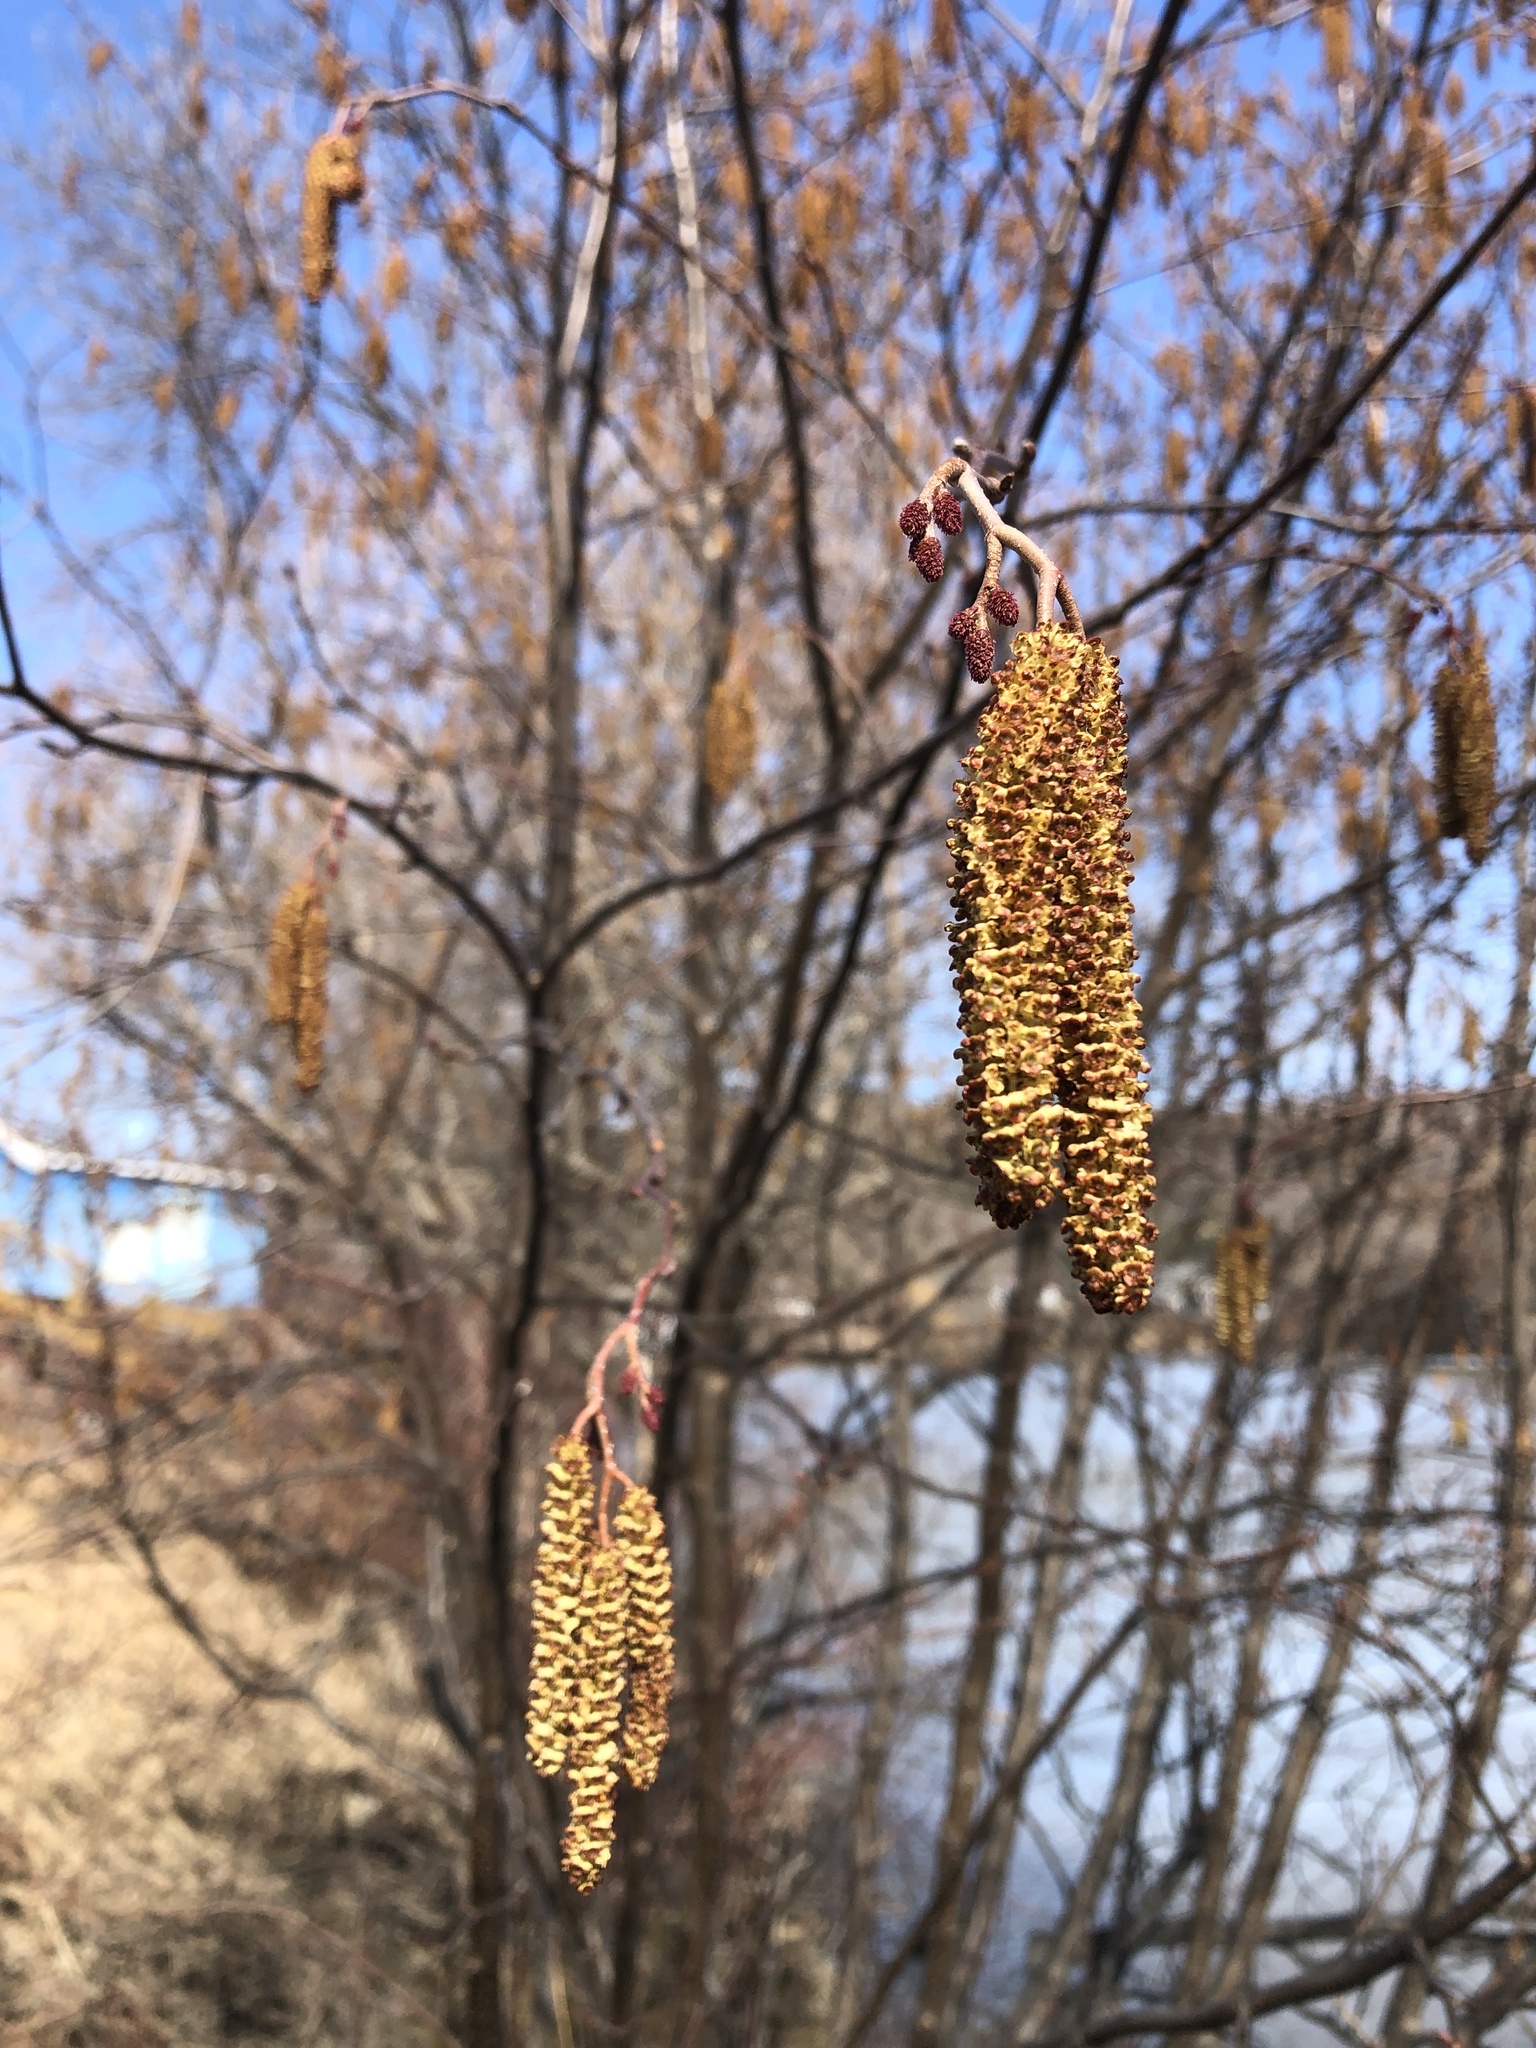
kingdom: Plantae
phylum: Tracheophyta
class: Magnoliopsida
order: Fagales
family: Betulaceae
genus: Alnus
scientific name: Alnus incana
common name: Grey alder
